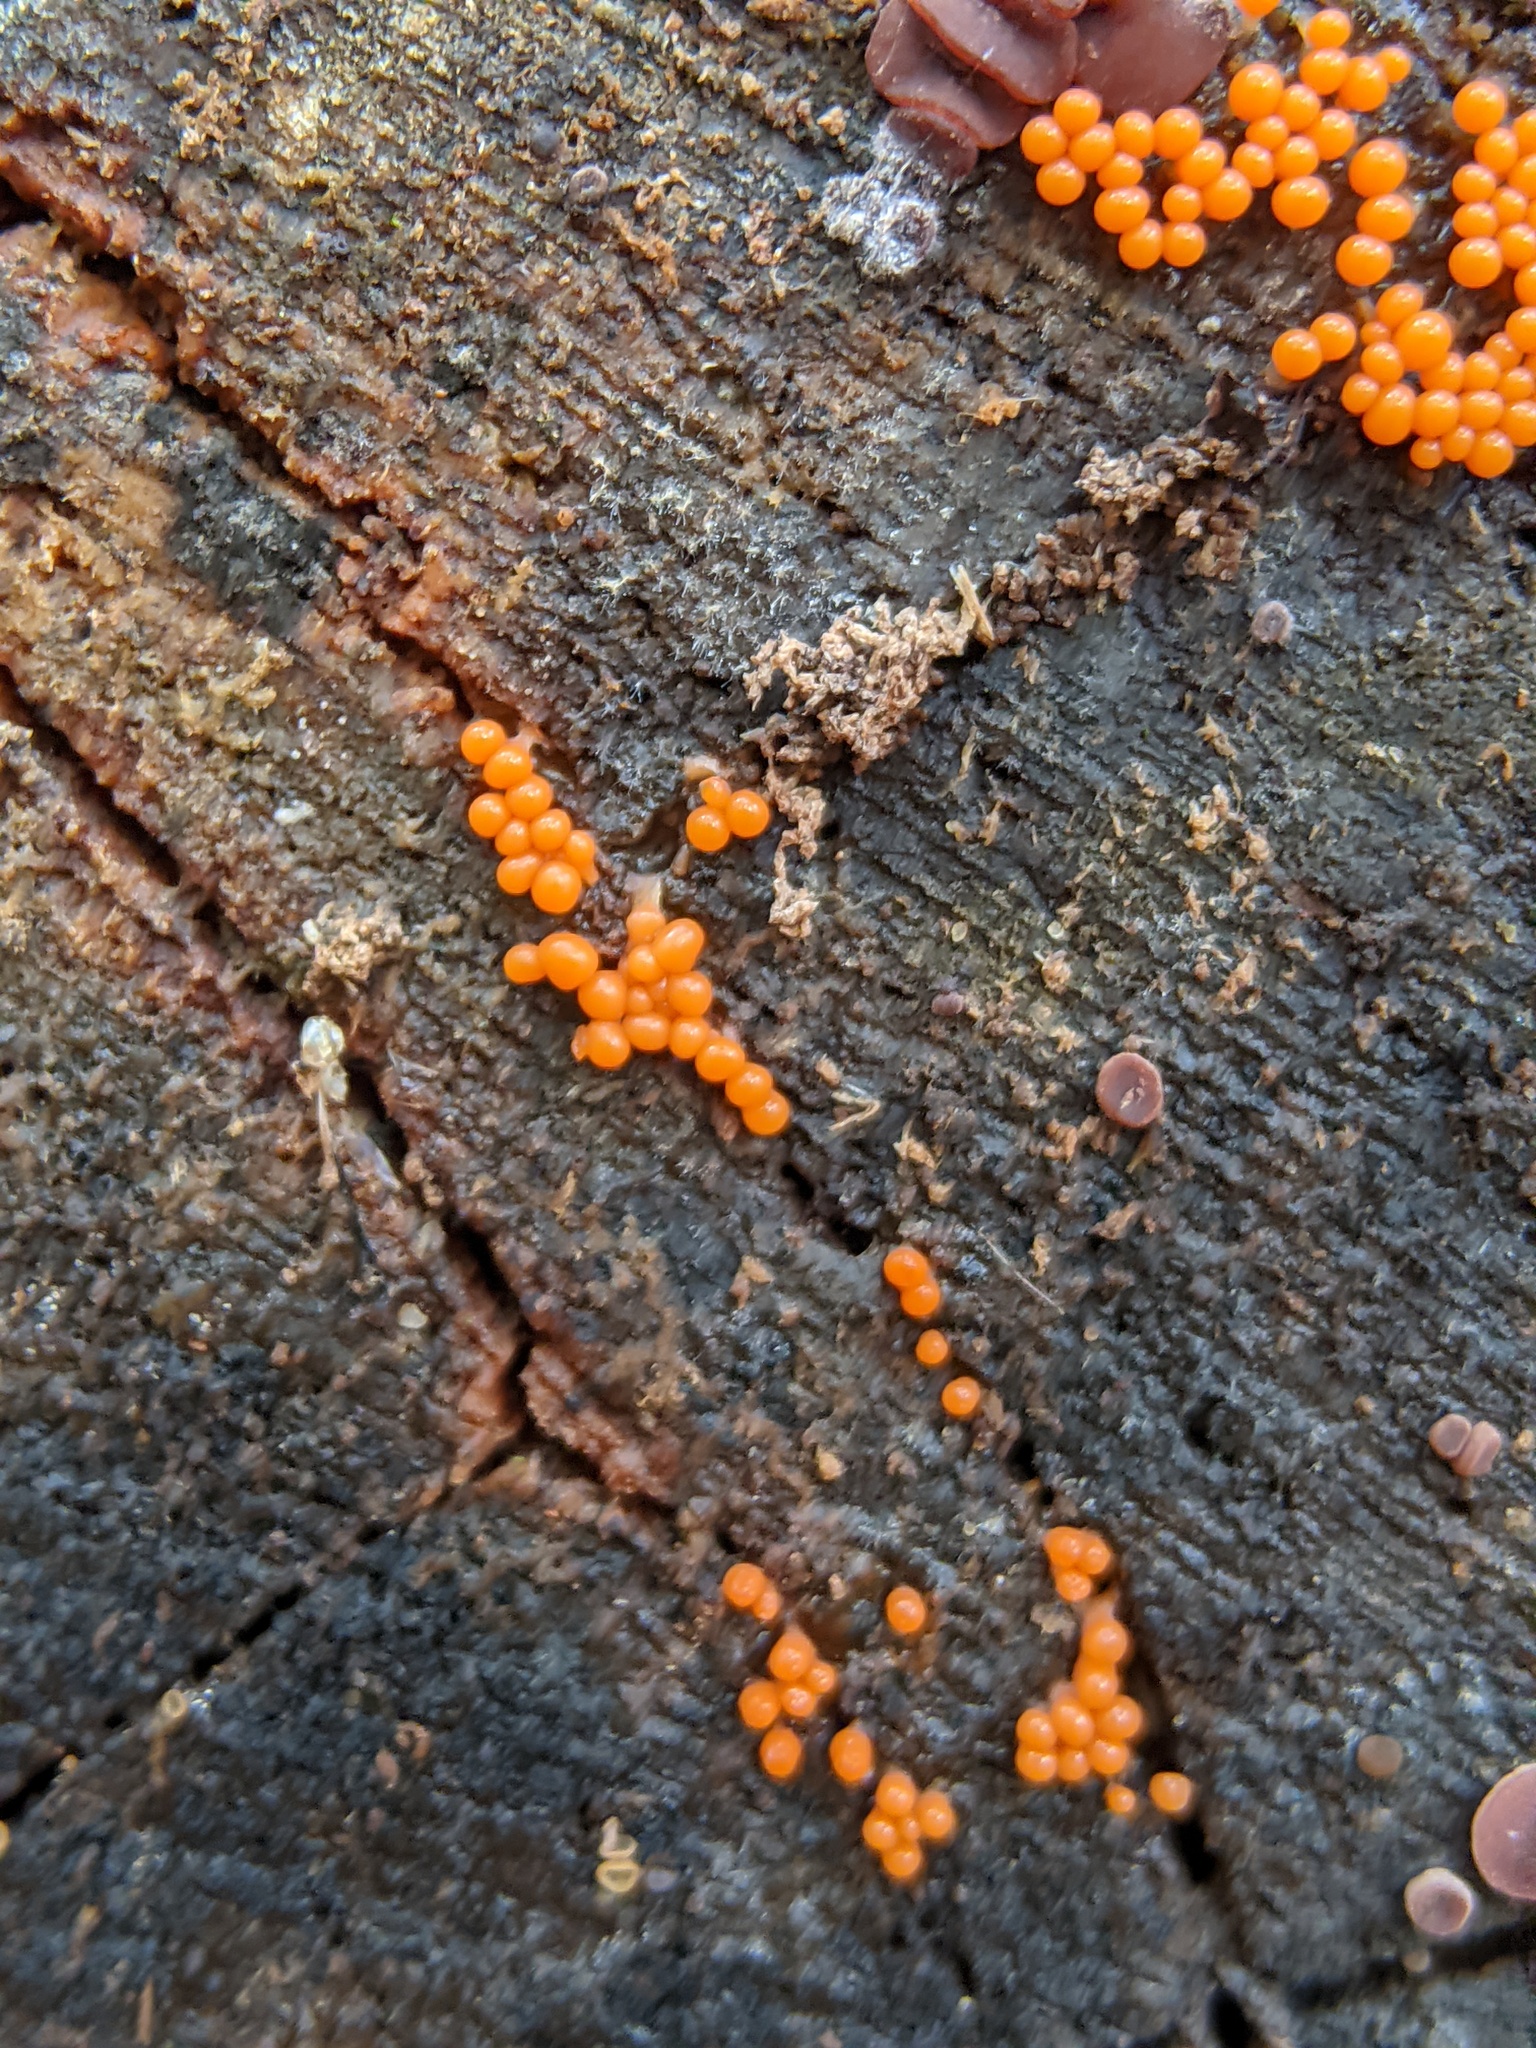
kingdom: Protozoa
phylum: Mycetozoa
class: Myxomycetes
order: Trichiales
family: Arcyriaceae
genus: Hemitrichia
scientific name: Hemitrichia decipiens
